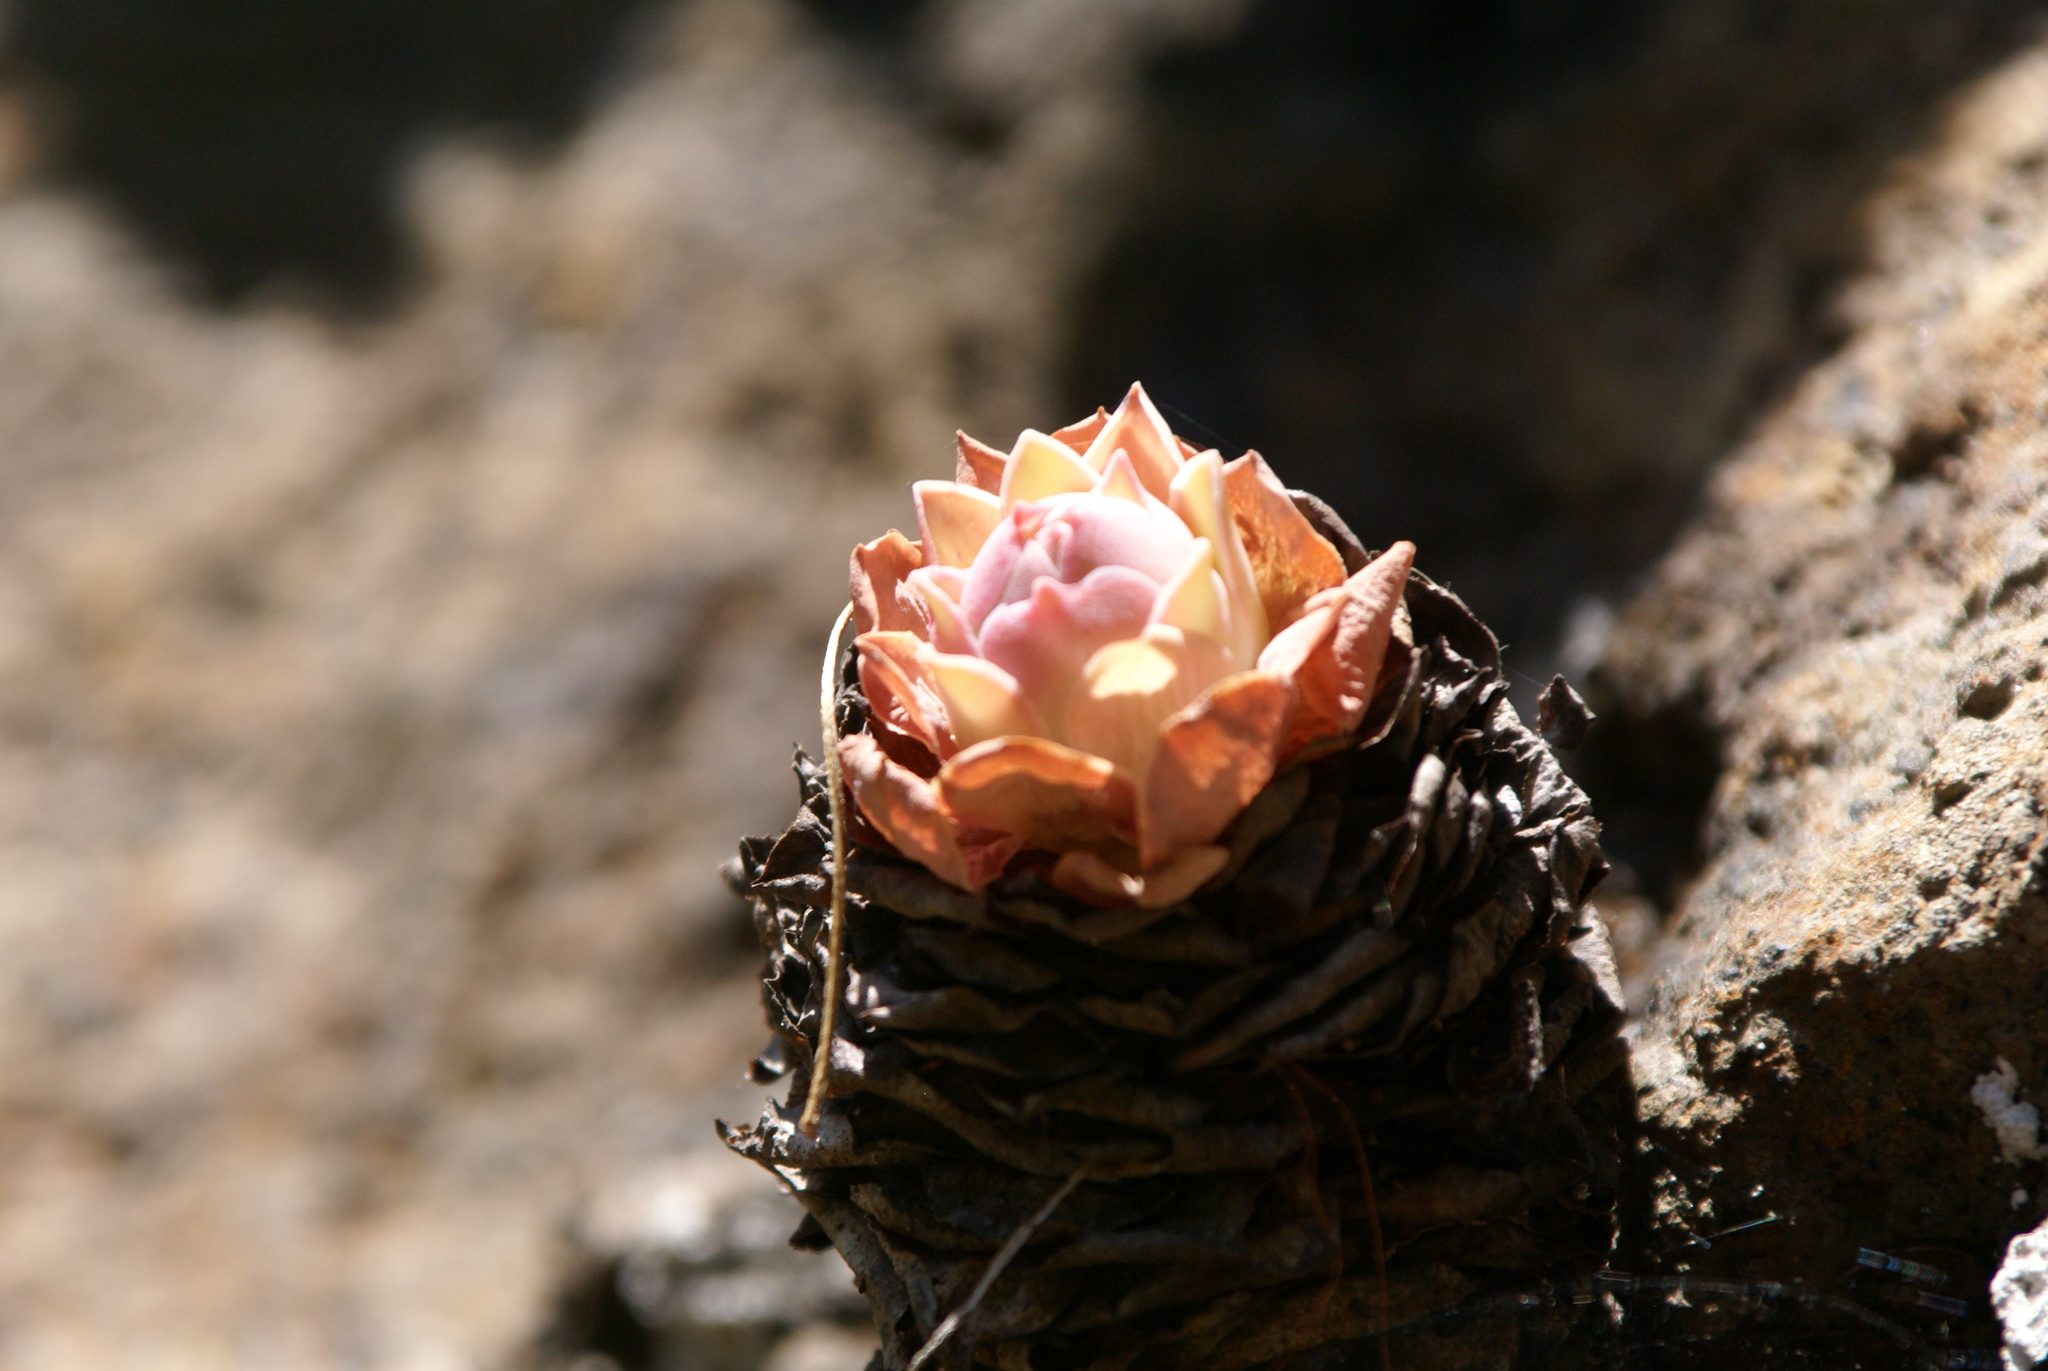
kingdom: Plantae
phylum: Tracheophyta
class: Magnoliopsida
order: Saxifragales
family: Crassulaceae
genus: Aeonium
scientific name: Aeonium diplocyclum
